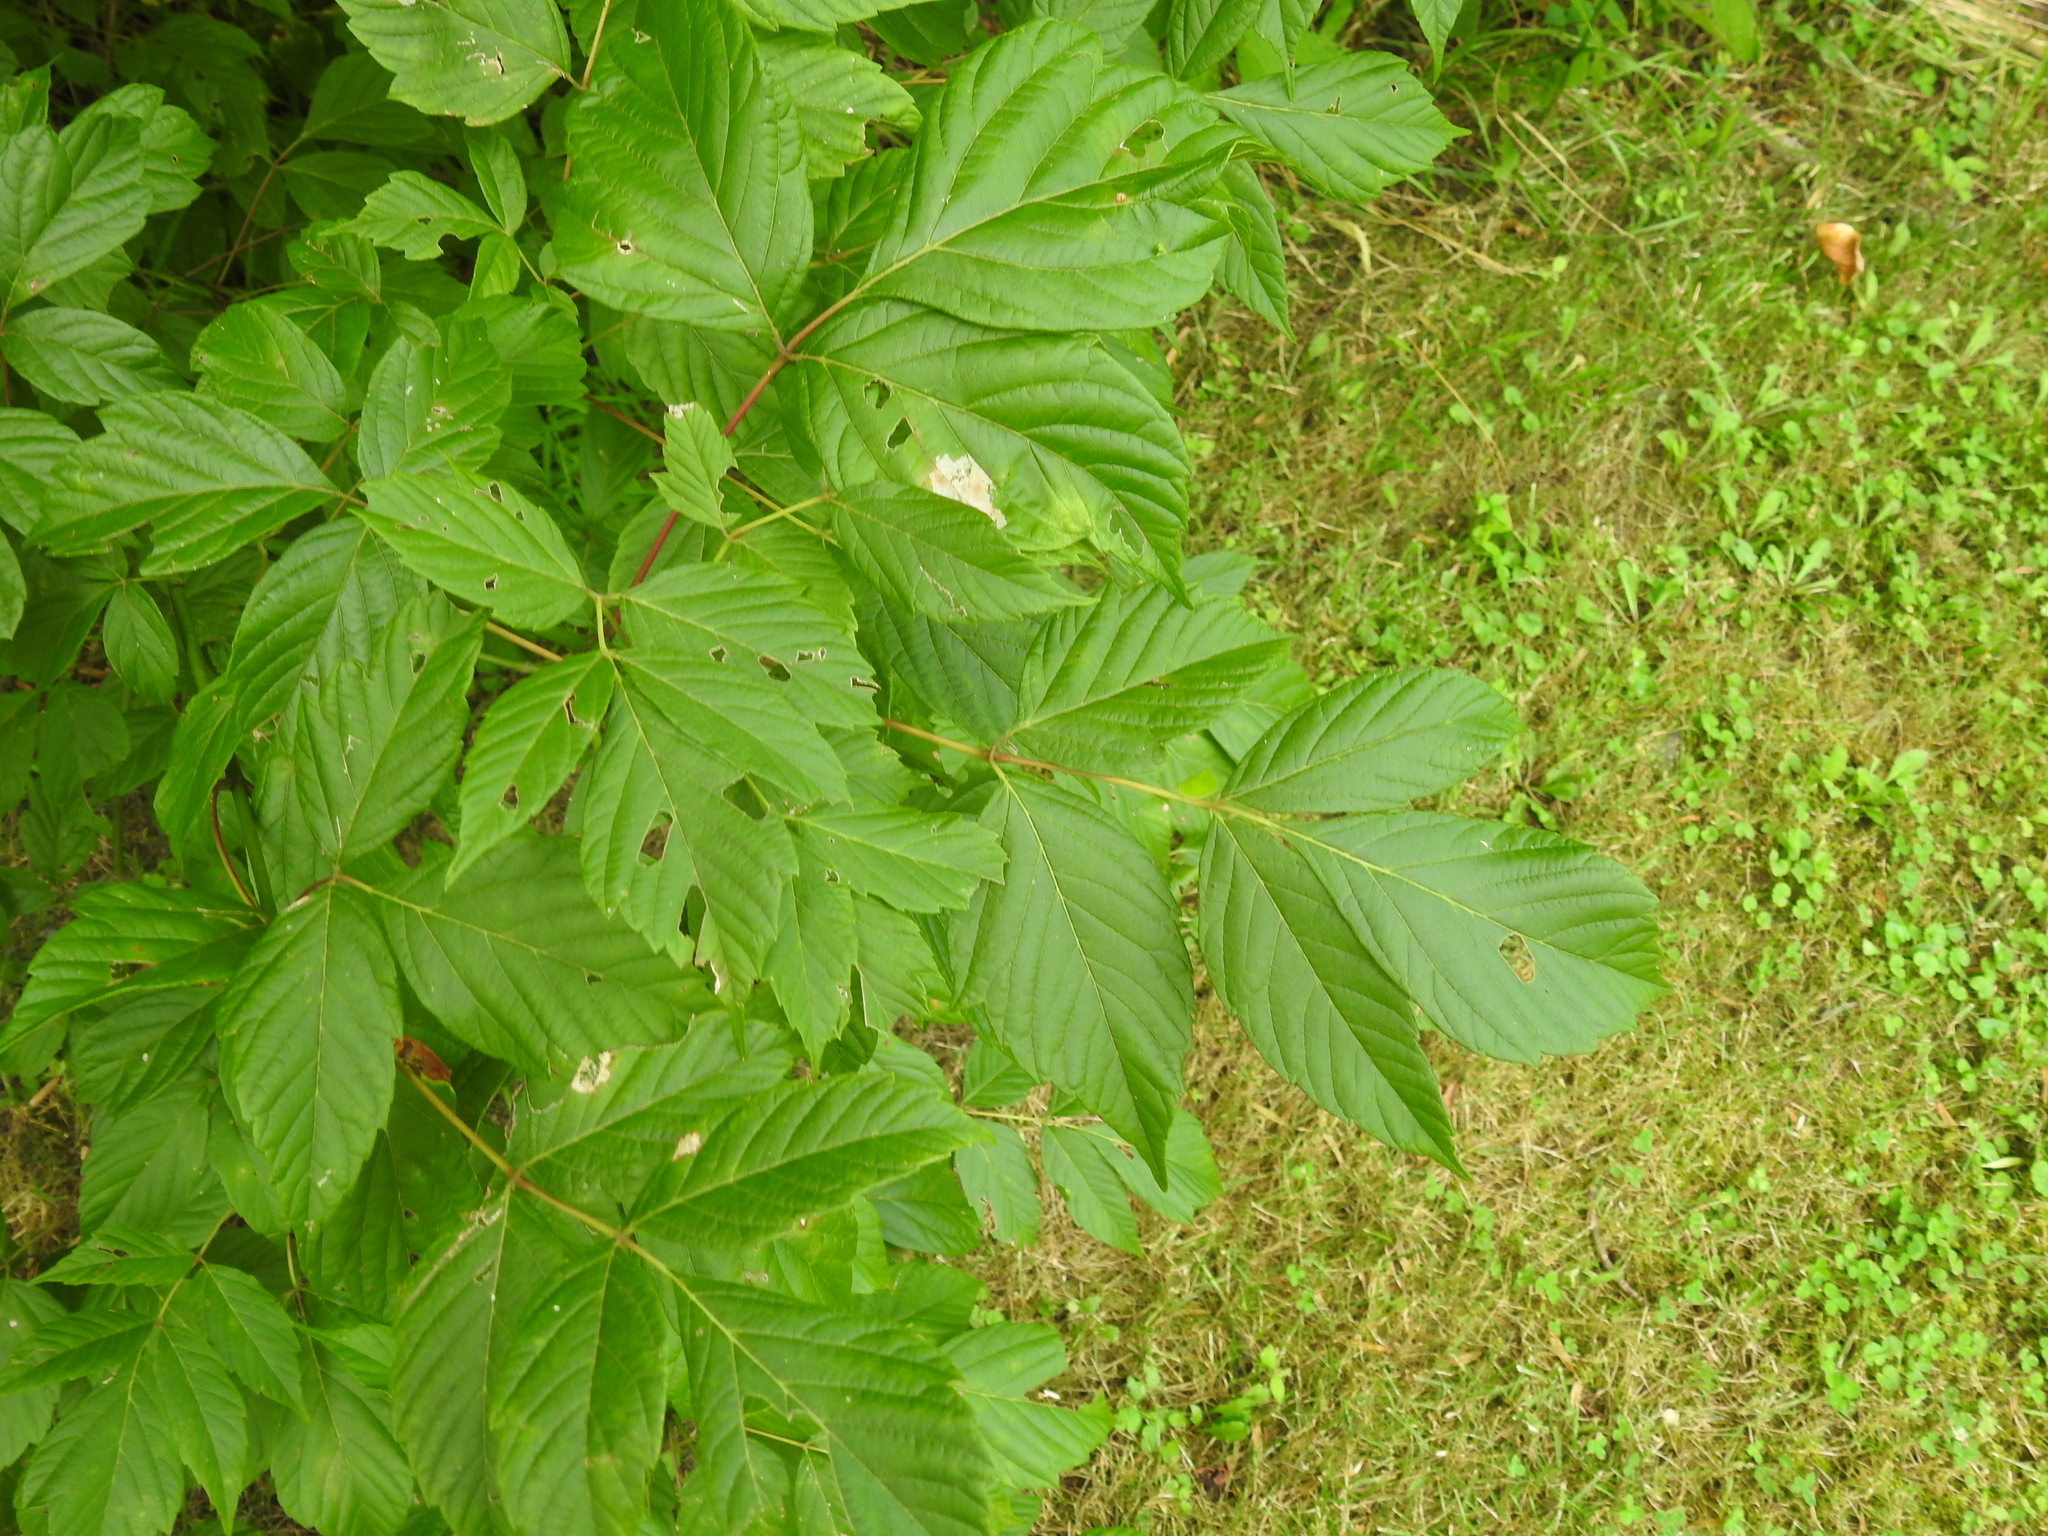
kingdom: Plantae
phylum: Tracheophyta
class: Magnoliopsida
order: Sapindales
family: Sapindaceae
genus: Acer
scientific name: Acer negundo
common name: Ashleaf maple
